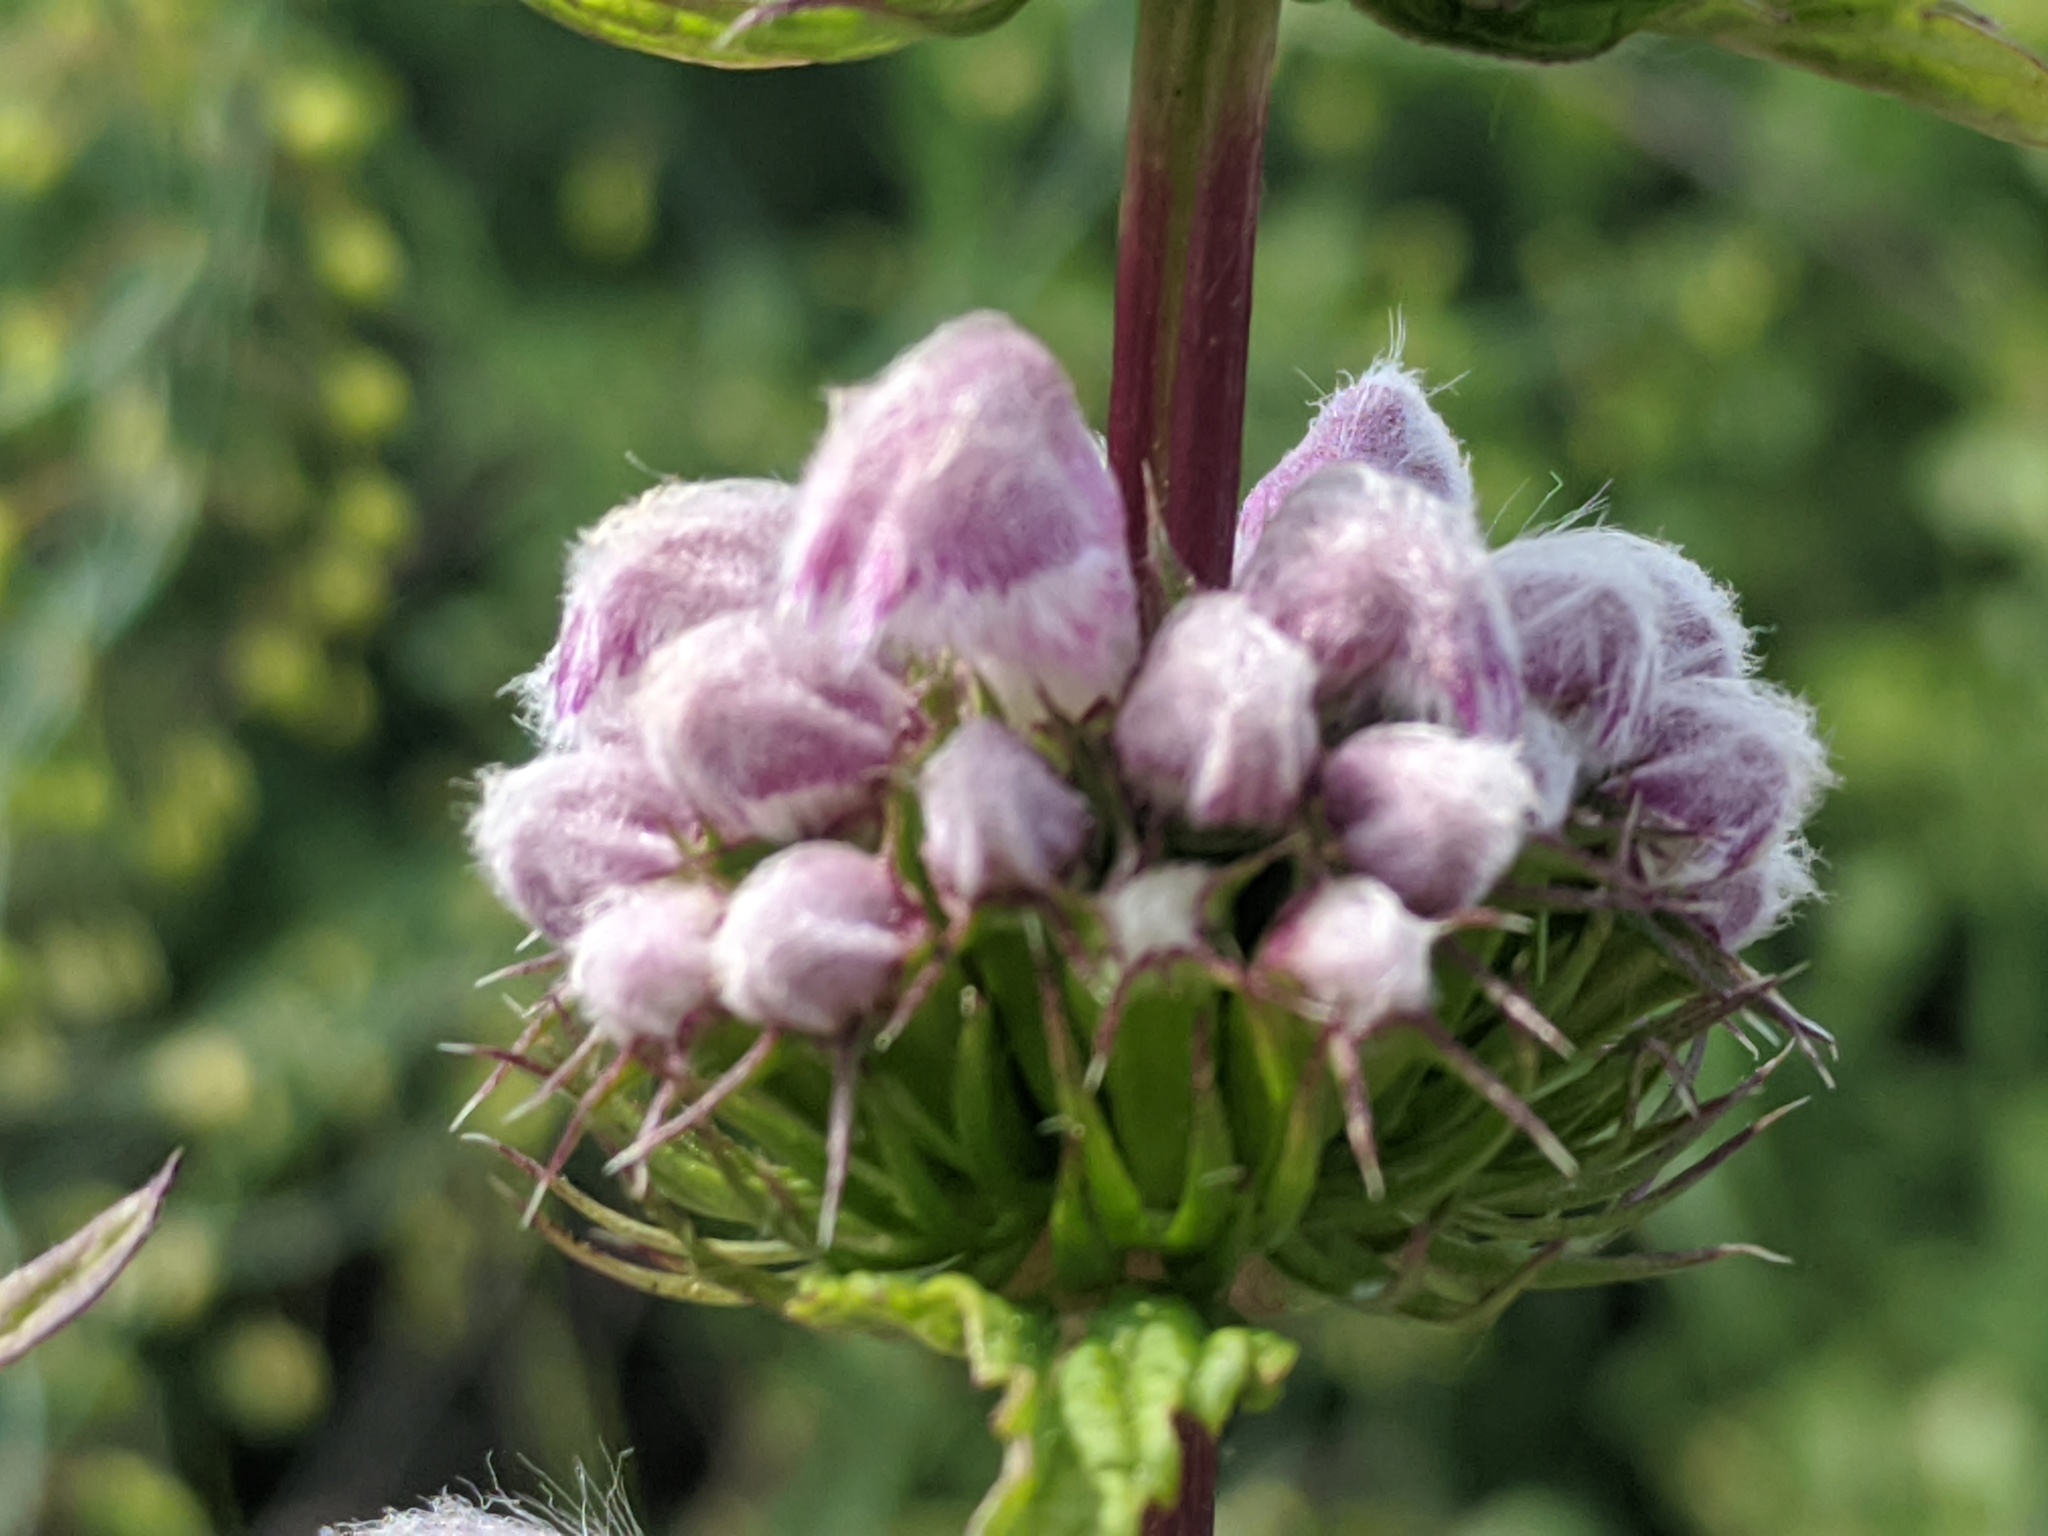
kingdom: Plantae
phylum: Tracheophyta
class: Magnoliopsida
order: Lamiales
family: Lamiaceae
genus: Phlomoides
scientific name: Phlomoides tuberosa
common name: Tuberous jerusalem sage
